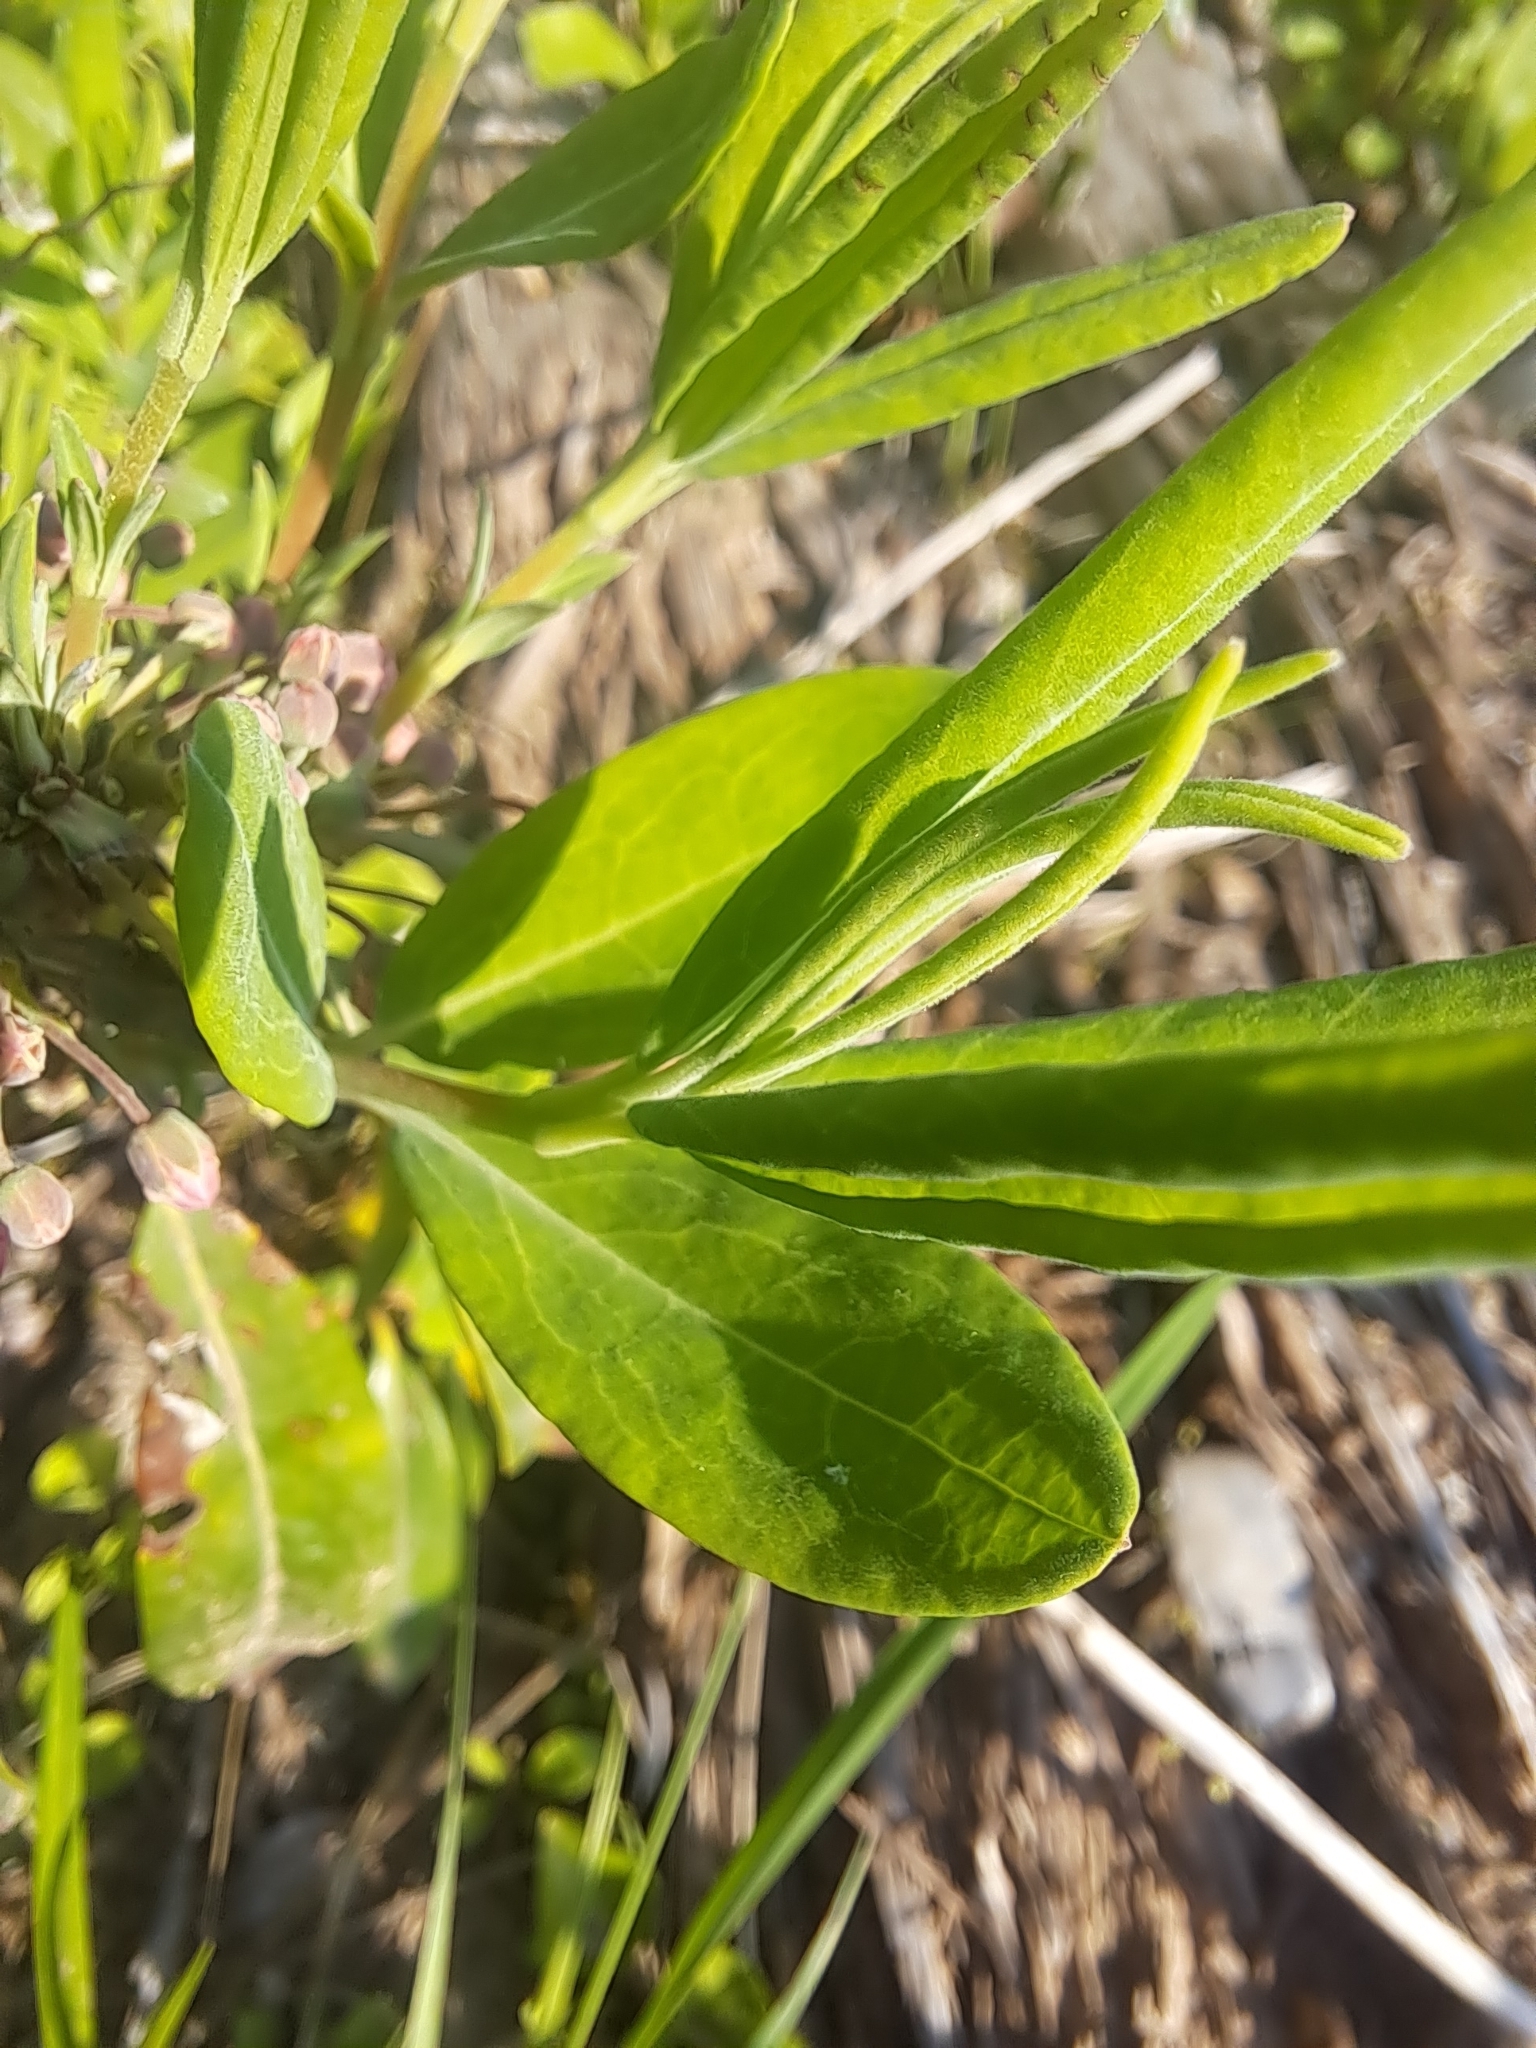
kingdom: Plantae
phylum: Tracheophyta
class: Magnoliopsida
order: Ericales
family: Ericaceae
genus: Kalmia
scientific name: Kalmia angustifolia
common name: Sheep-laurel
